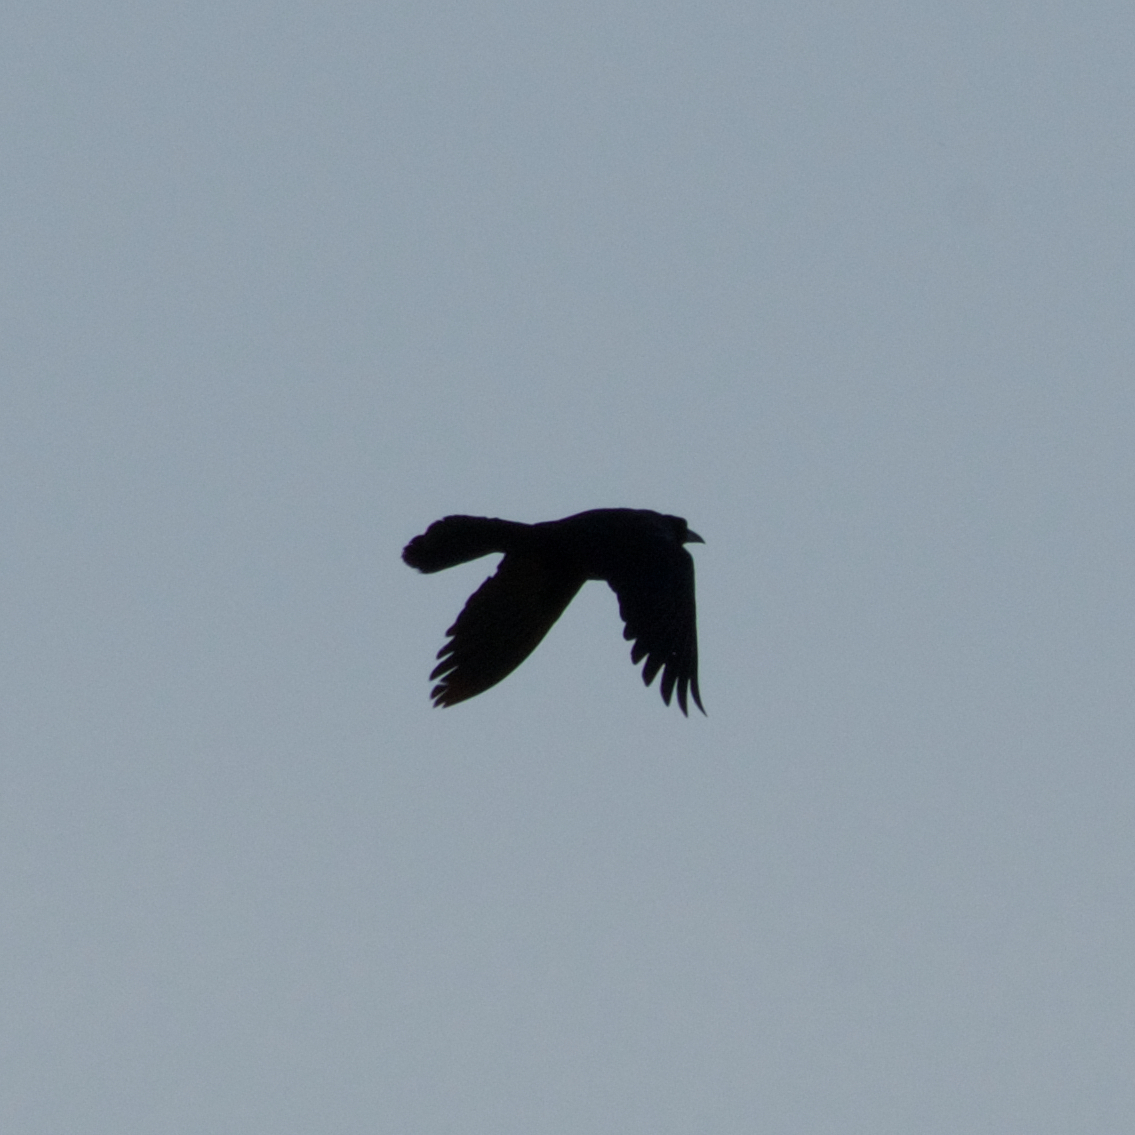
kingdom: Animalia
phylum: Chordata
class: Aves
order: Passeriformes
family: Icteridae
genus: Quiscalus
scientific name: Quiscalus mexicanus
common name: Great-tailed grackle
